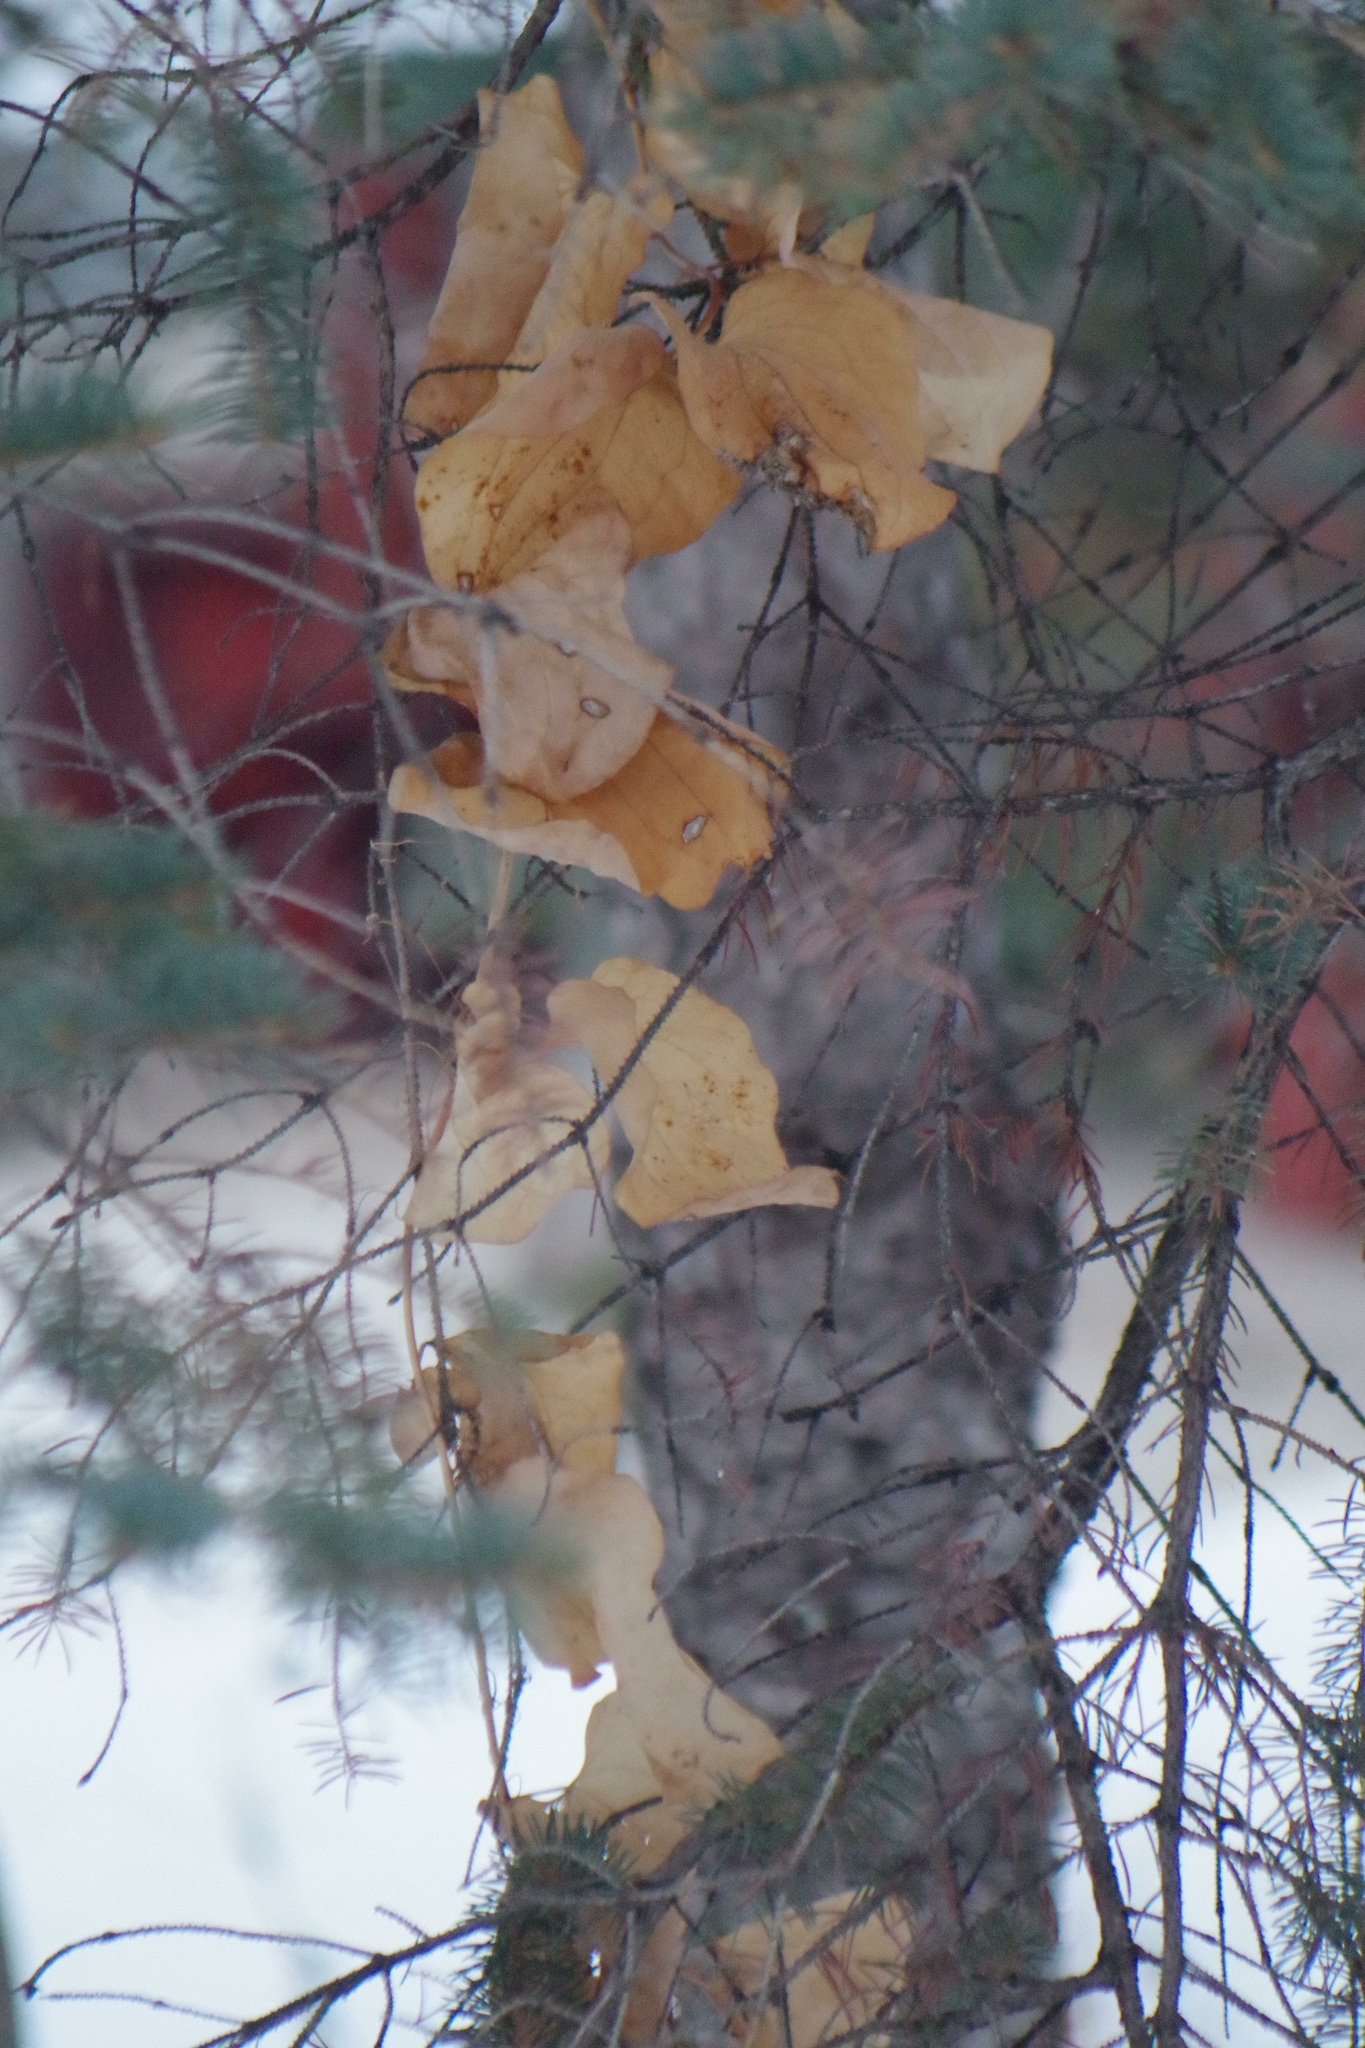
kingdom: Plantae
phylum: Tracheophyta
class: Liliopsida
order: Liliales
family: Smilacaceae
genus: Smilax
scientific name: Smilax lasioneura
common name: Blue ridge carrionflower
